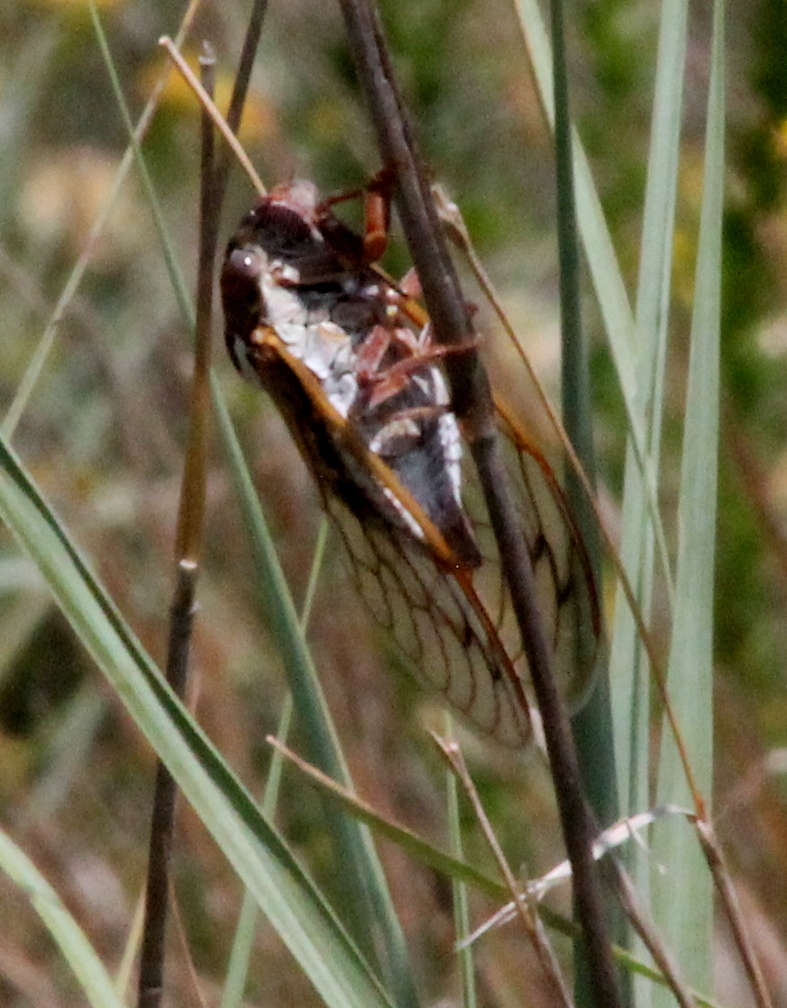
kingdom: Animalia
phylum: Arthropoda
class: Insecta
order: Hemiptera
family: Cicadidae
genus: Megatibicen
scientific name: Megatibicen tremulus
